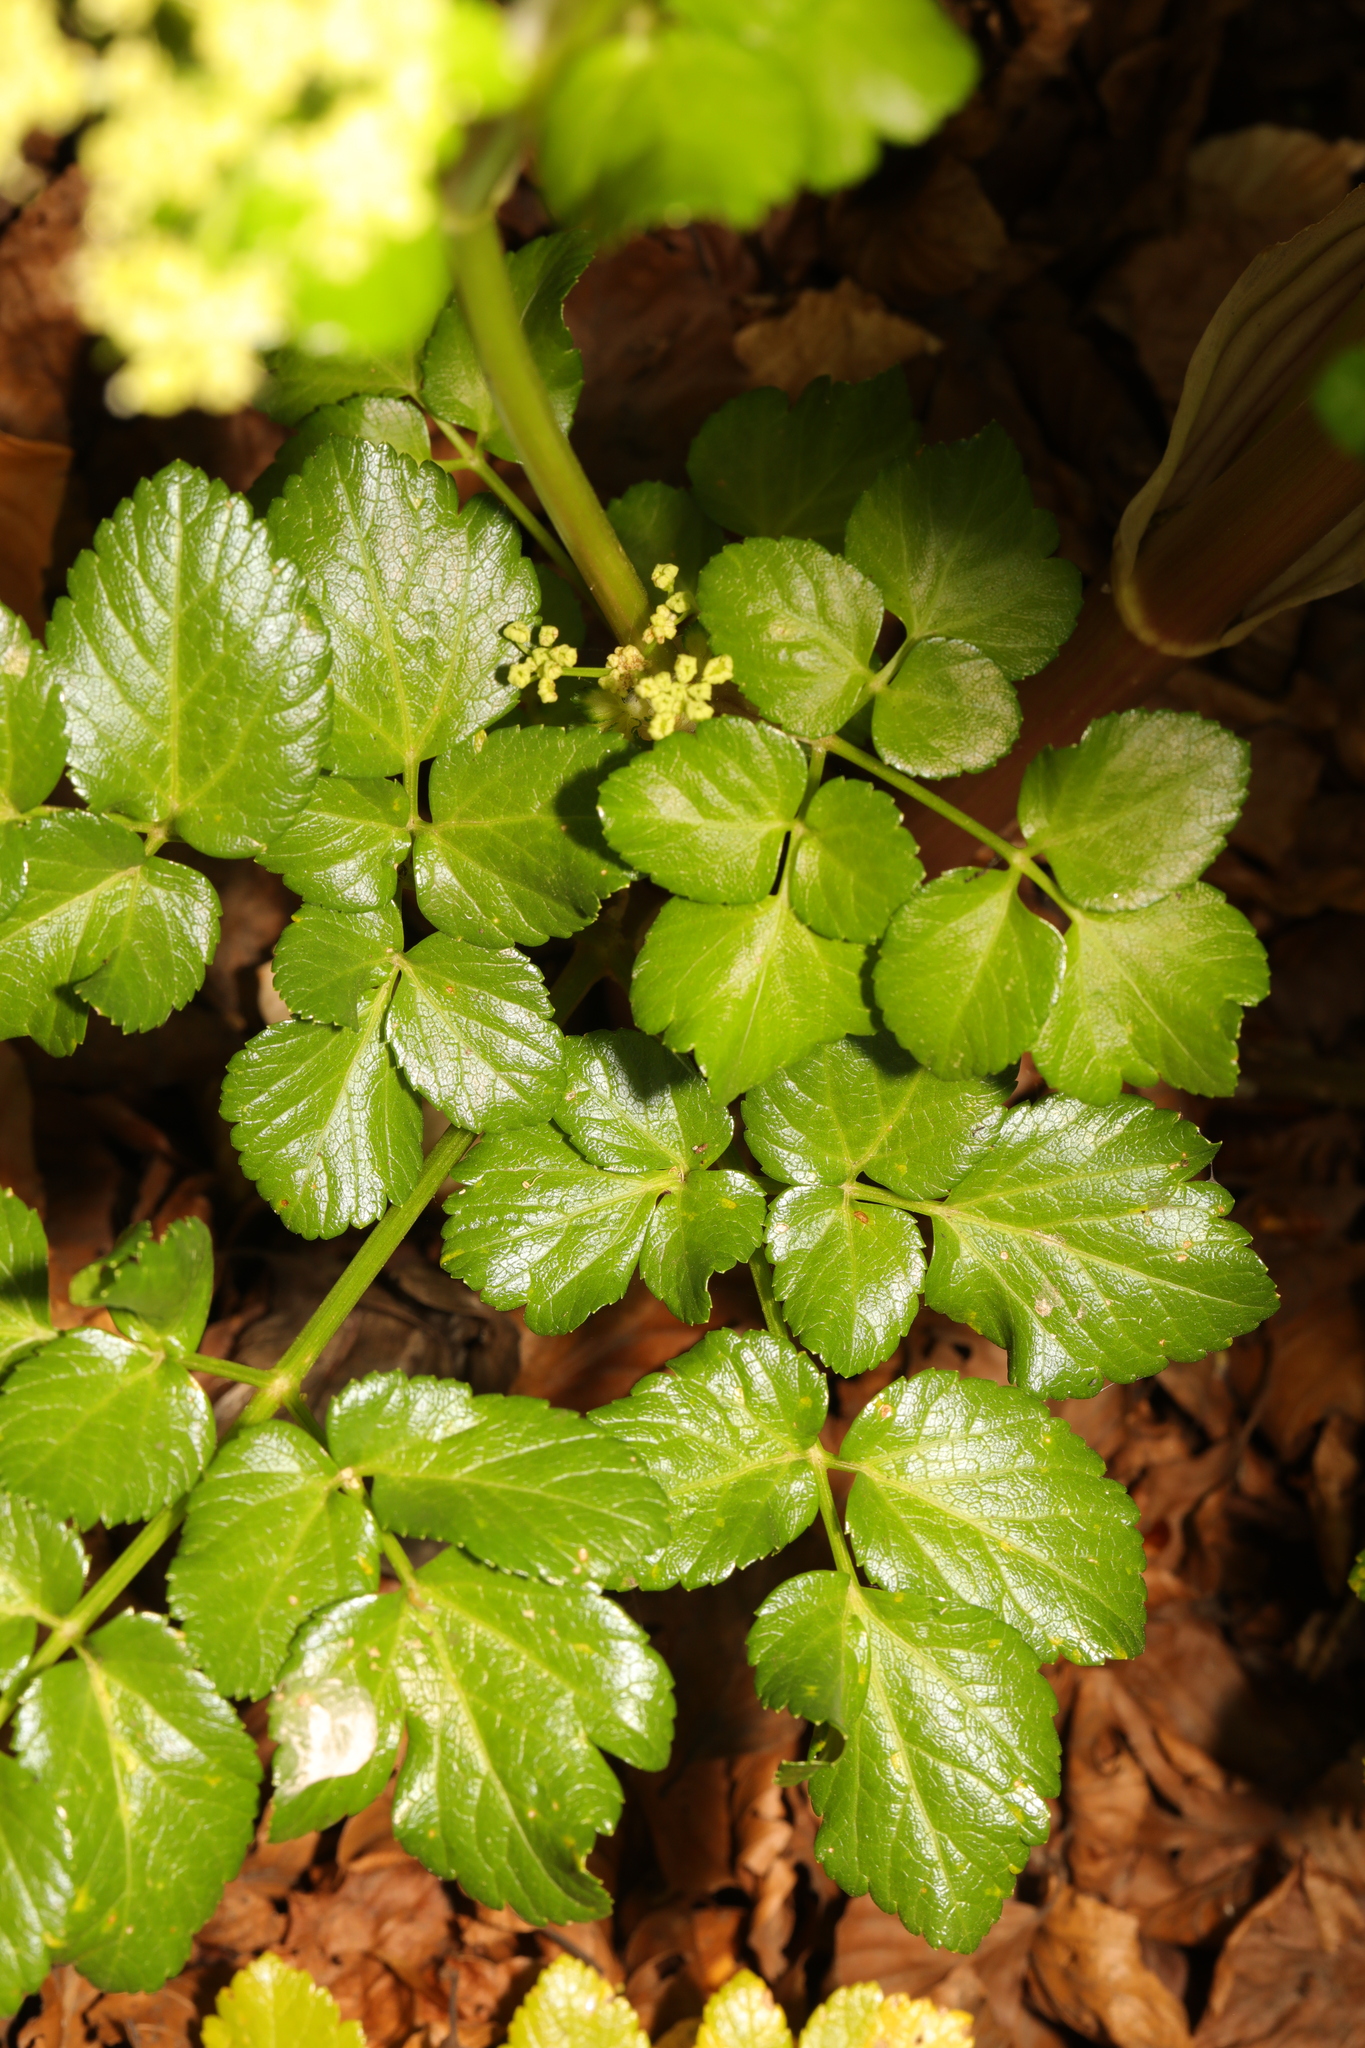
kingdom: Plantae
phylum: Tracheophyta
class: Magnoliopsida
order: Apiales
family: Apiaceae
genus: Smyrnium
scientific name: Smyrnium olusatrum
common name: Alexanders
